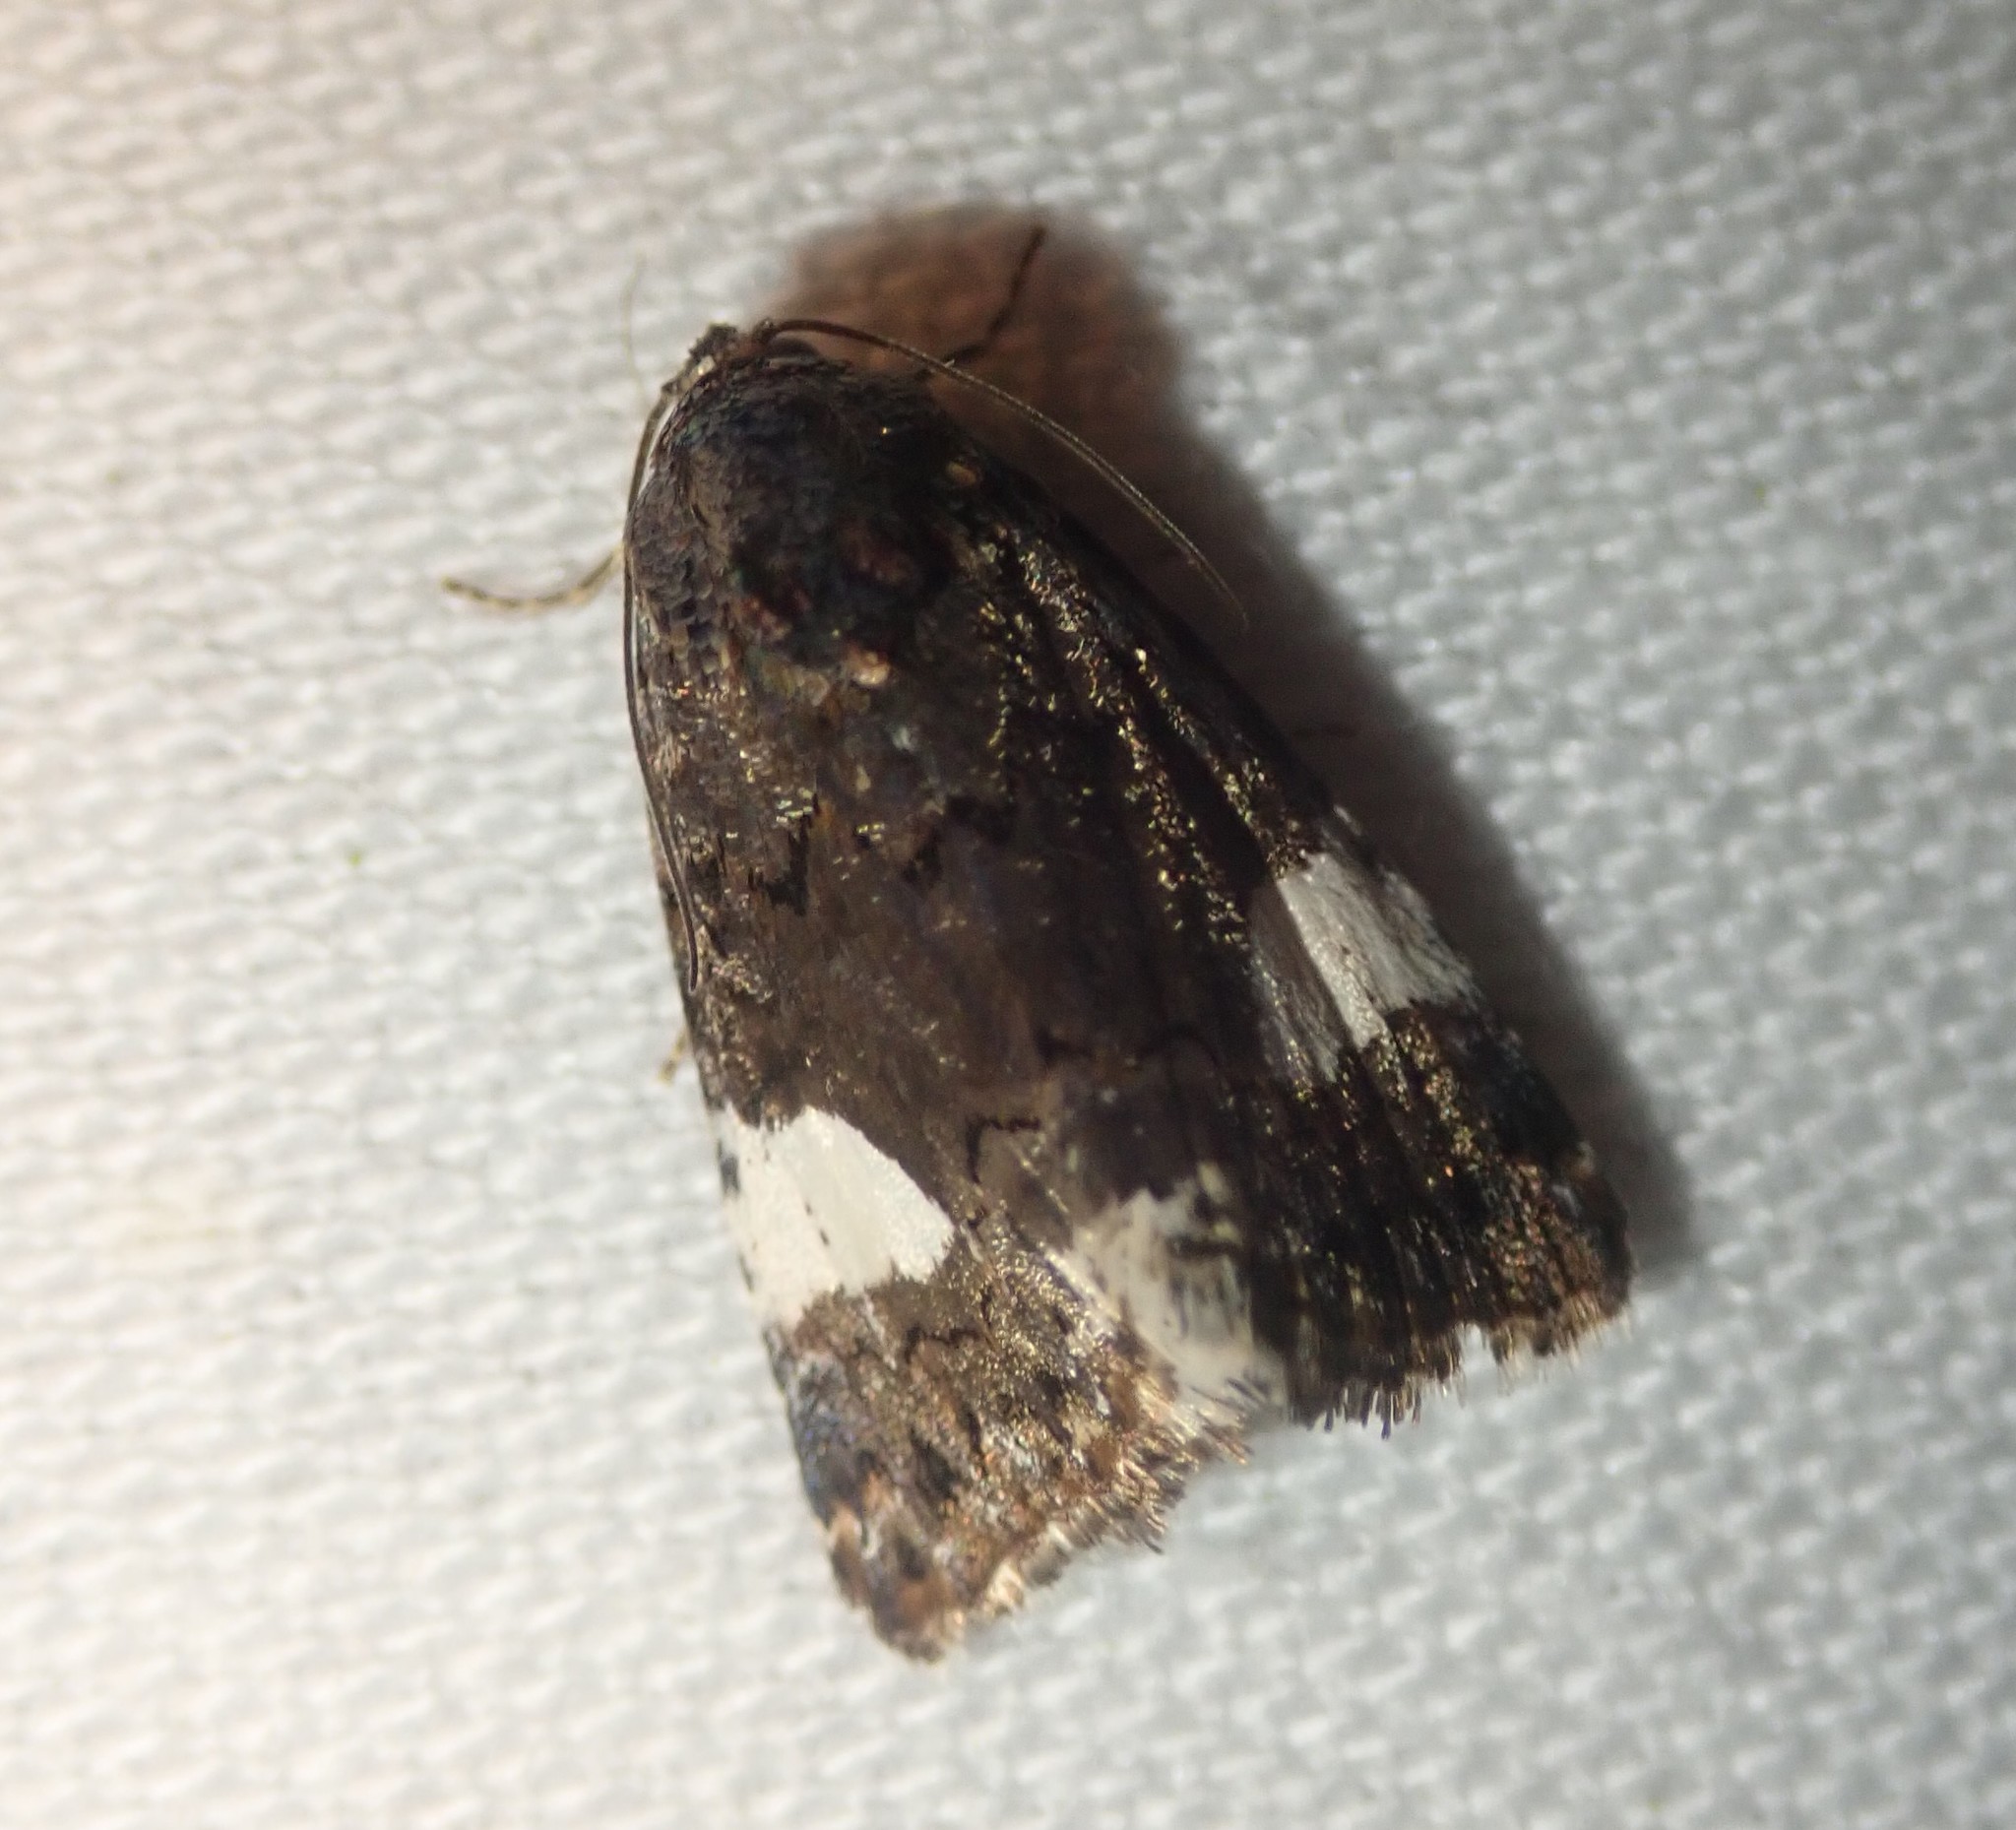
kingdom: Animalia
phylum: Arthropoda
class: Insecta
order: Lepidoptera
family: Erebidae
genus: Tyta
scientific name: Tyta luctuosa
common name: Four-spotted
